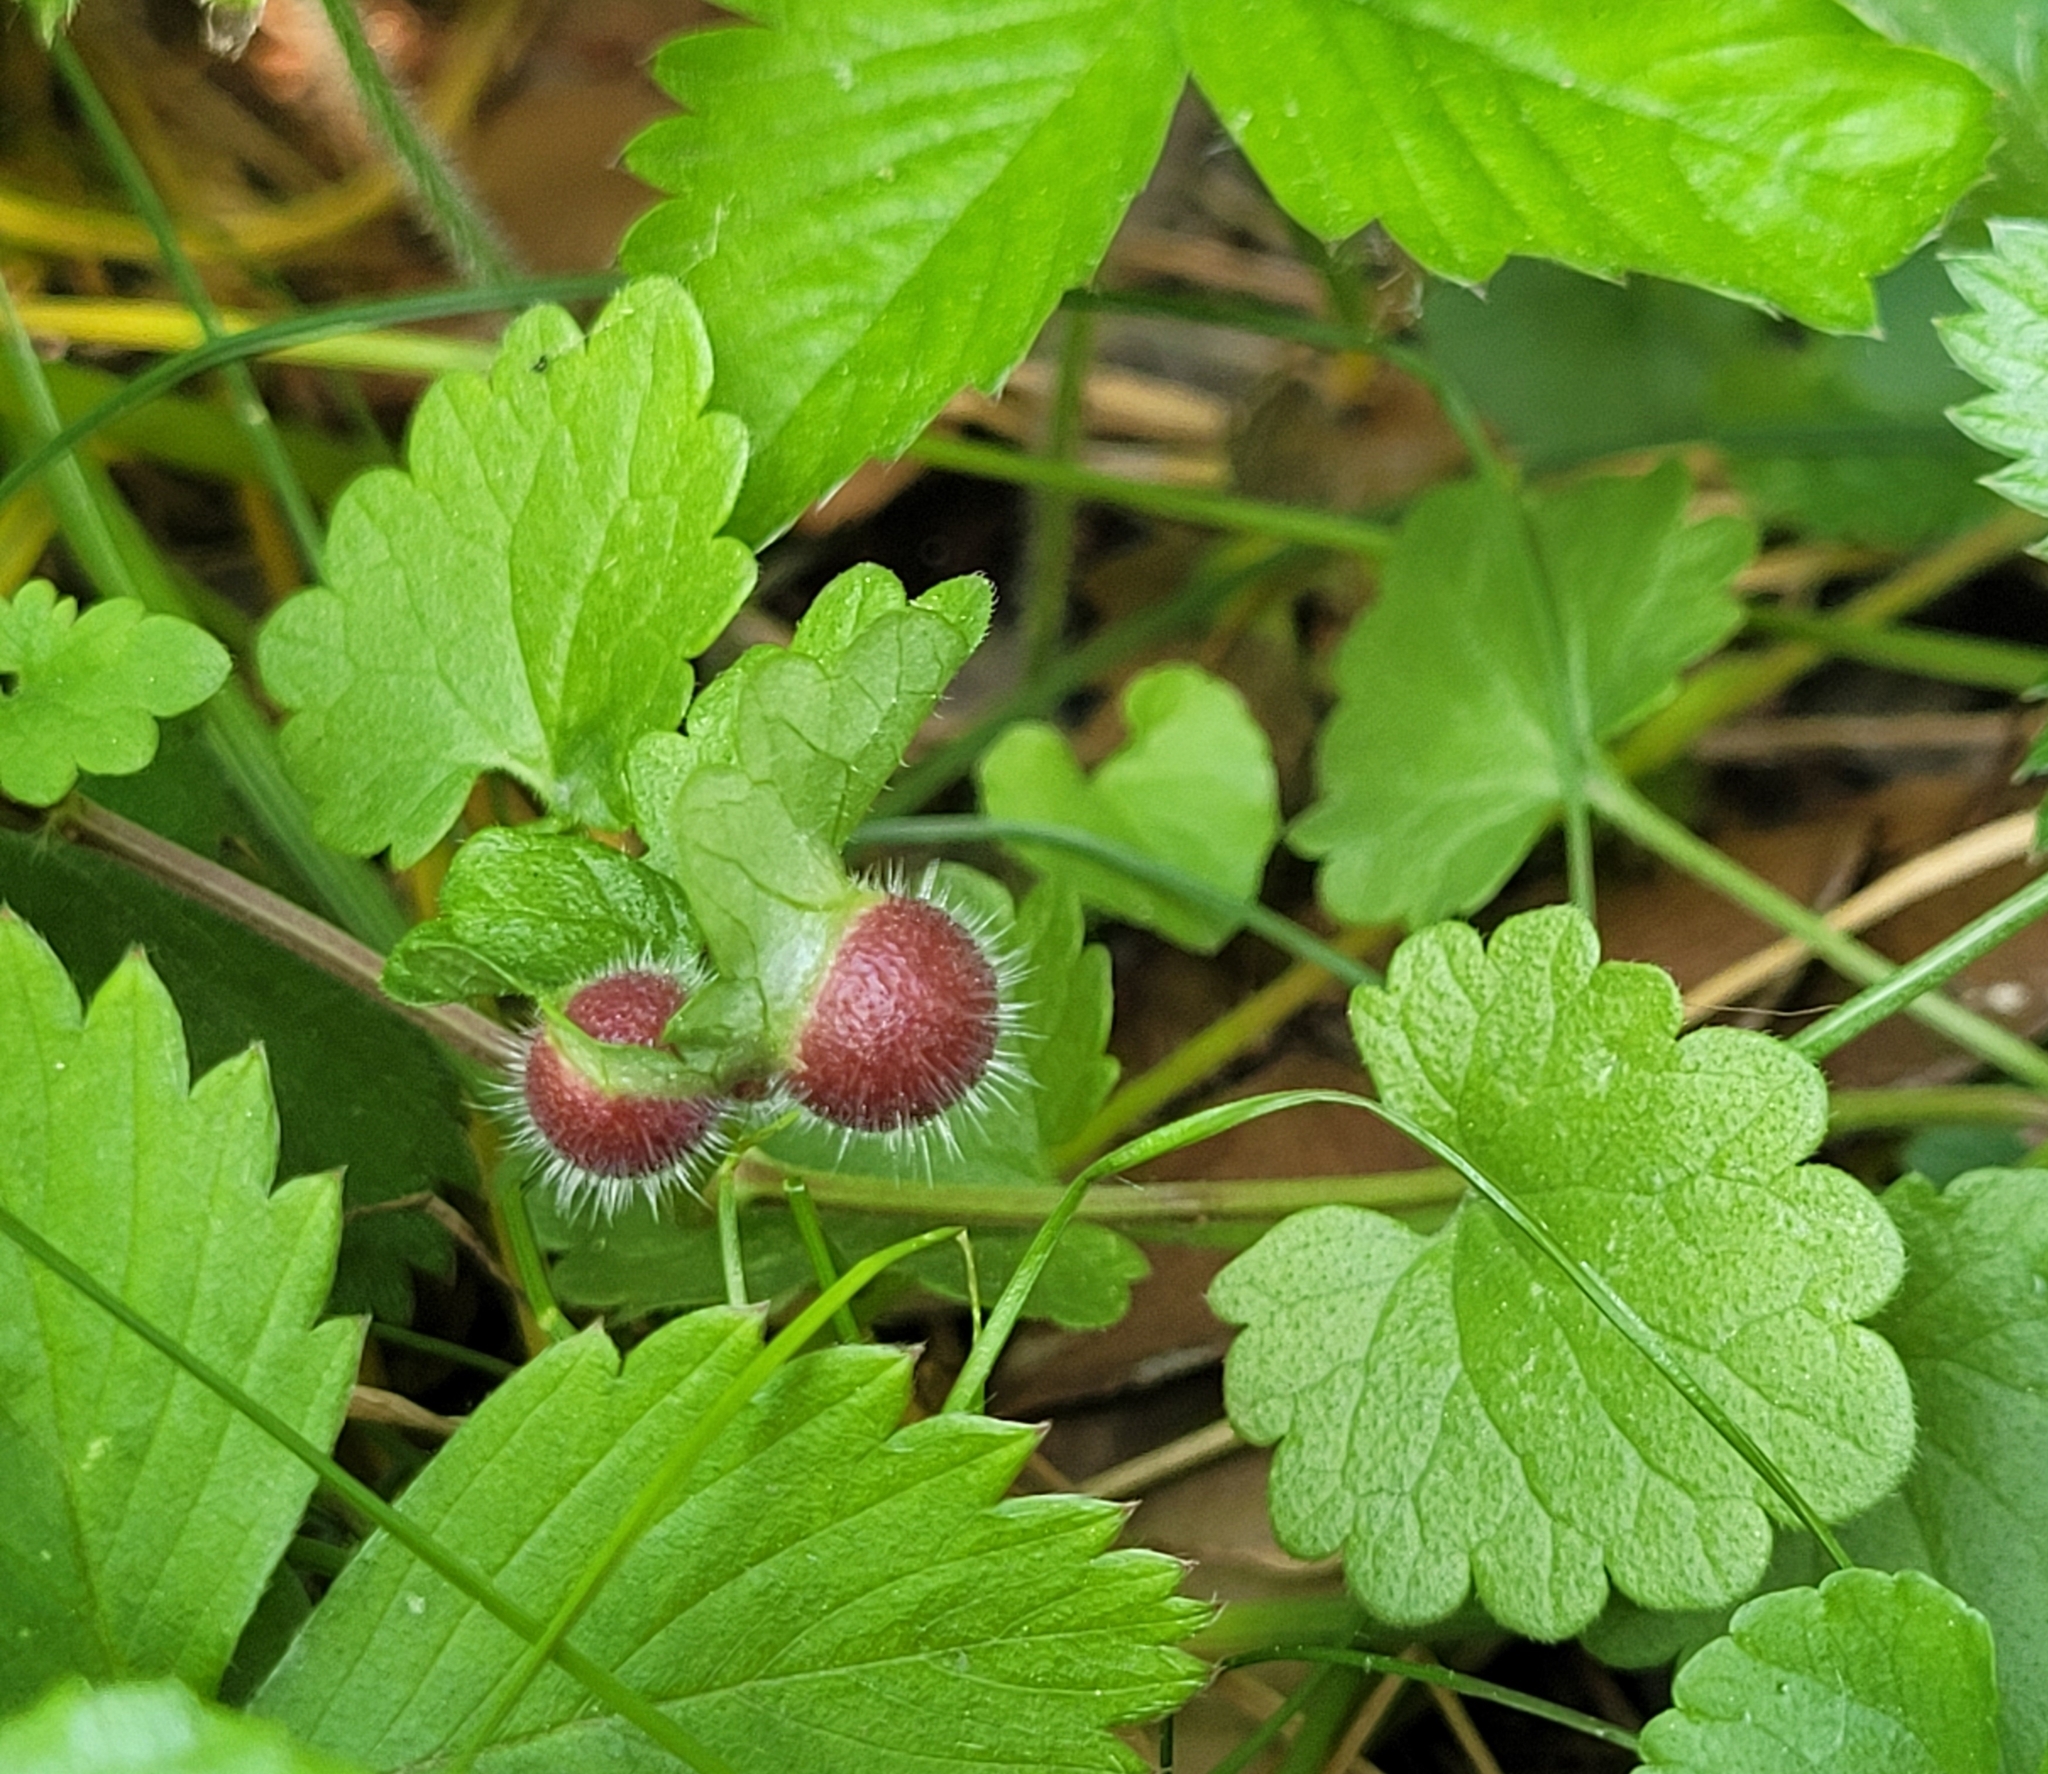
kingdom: Animalia
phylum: Arthropoda
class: Insecta
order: Hymenoptera
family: Cynipidae
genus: Liposthenes
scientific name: Liposthenes glechomae
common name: Gall wasp
